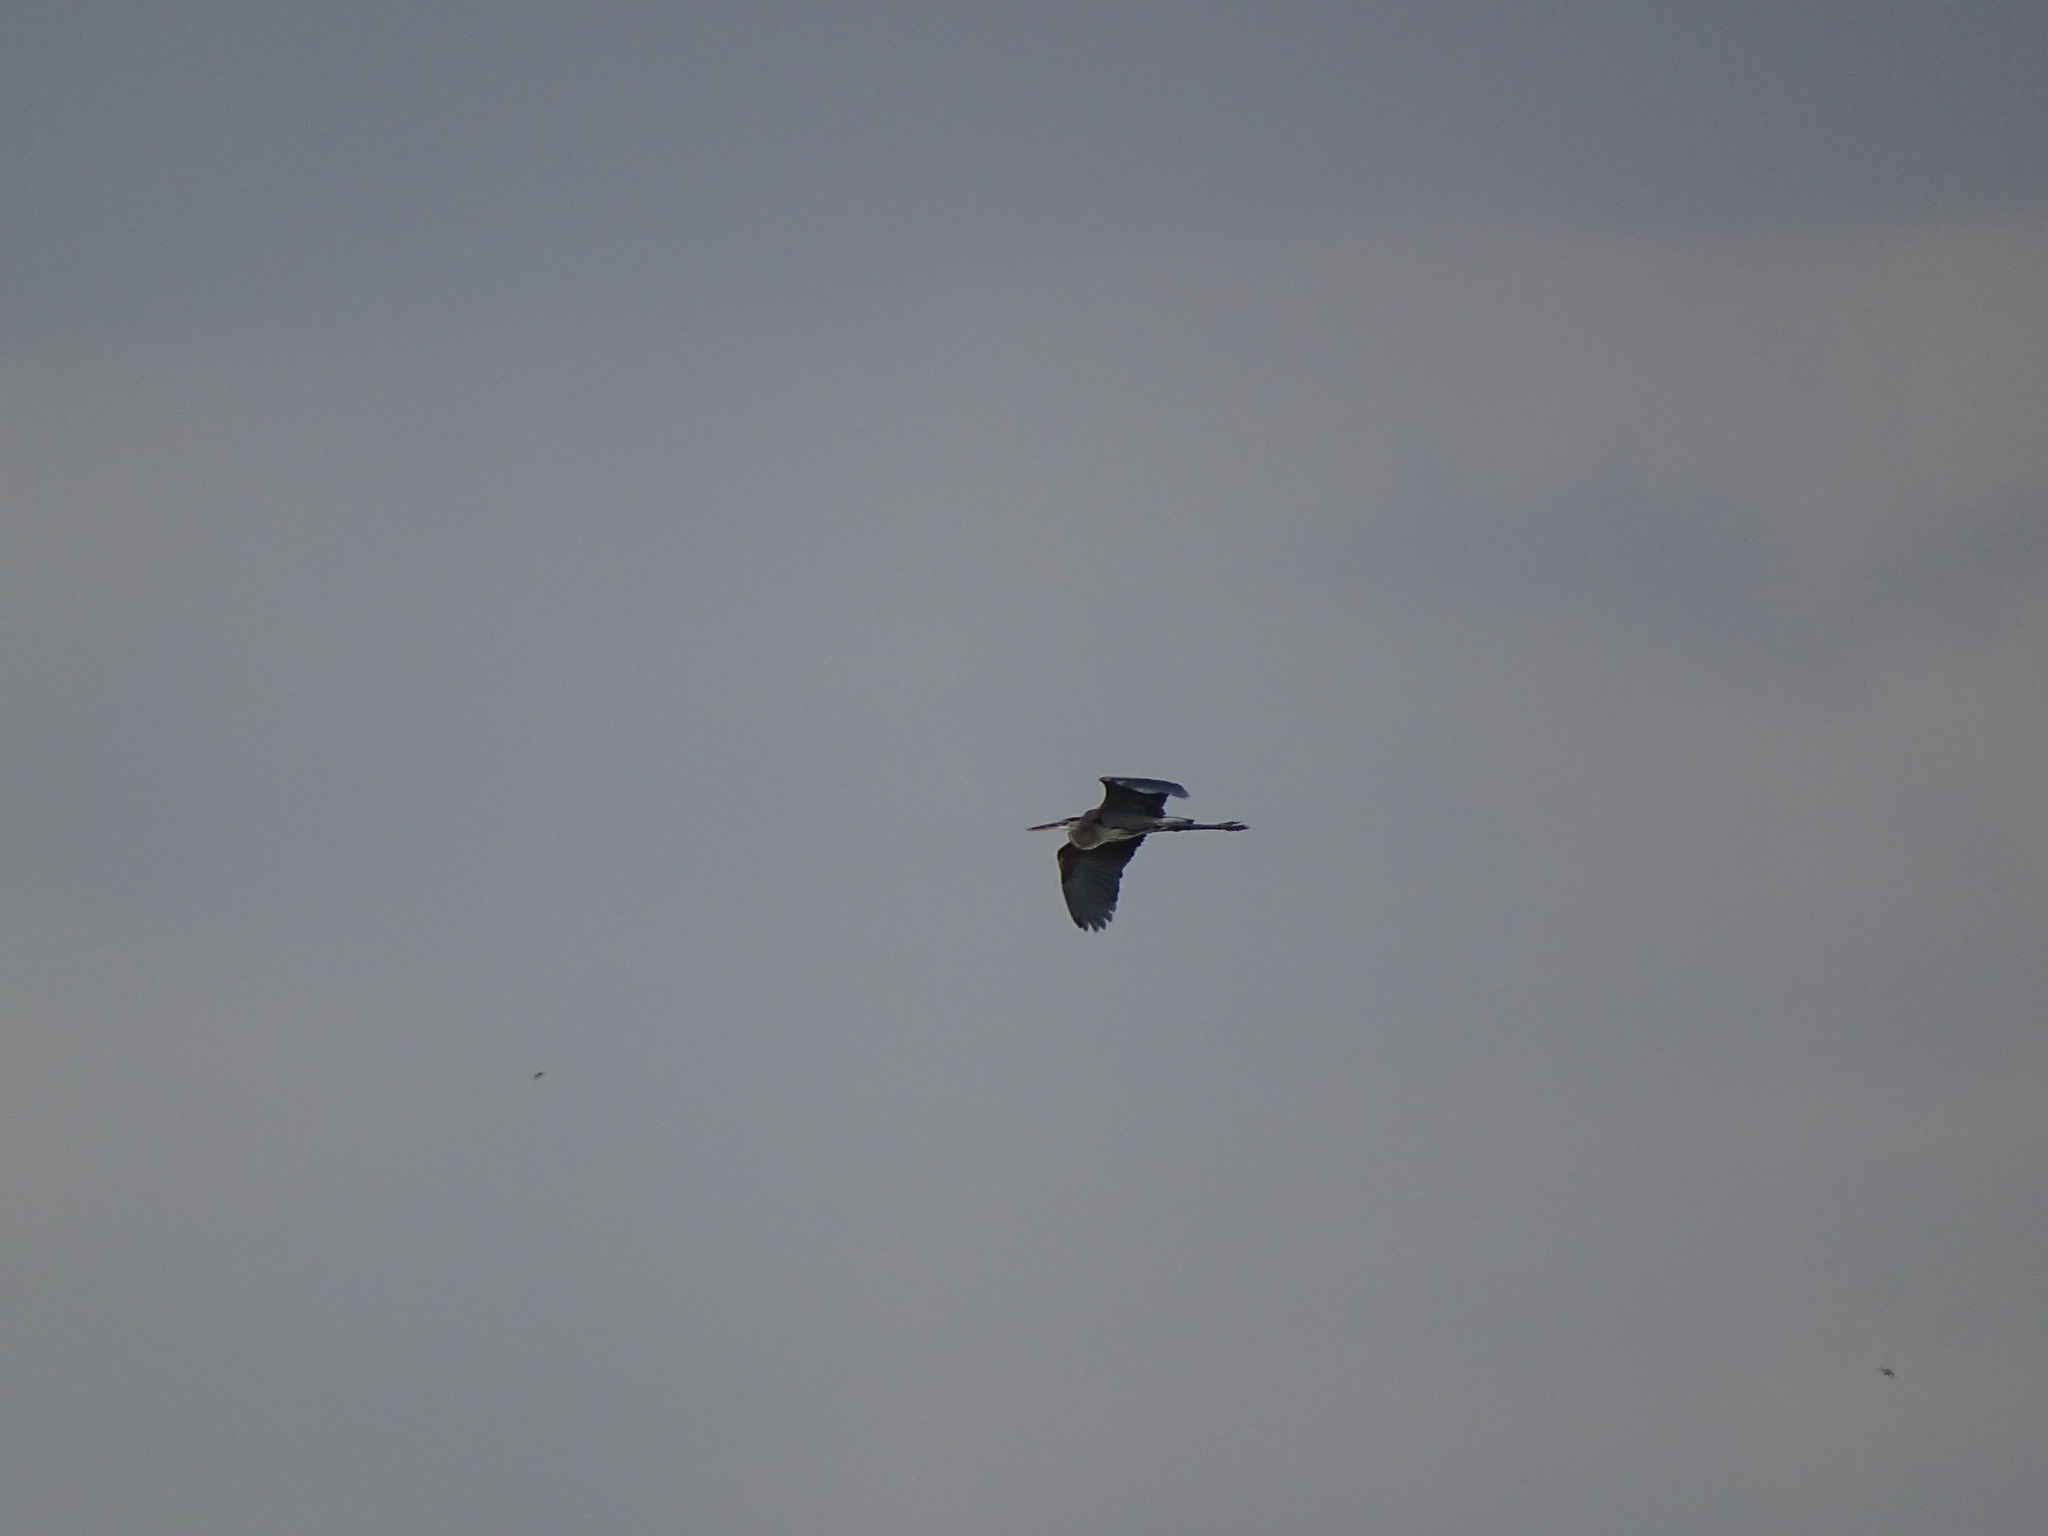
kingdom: Animalia
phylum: Chordata
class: Aves
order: Pelecaniformes
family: Ardeidae
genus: Ardea
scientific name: Ardea herodias
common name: Great blue heron
